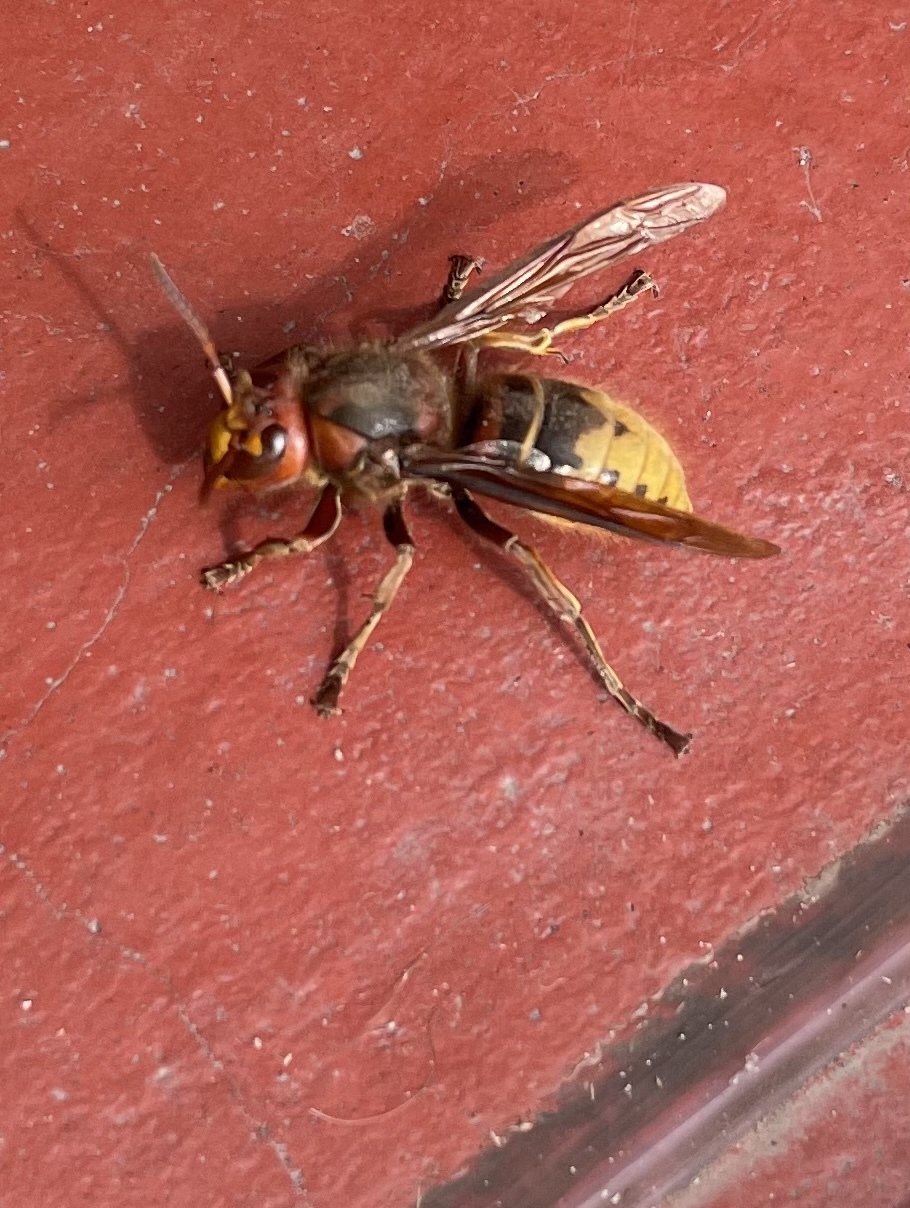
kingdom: Animalia
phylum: Arthropoda
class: Insecta
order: Hymenoptera
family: Vespidae
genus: Vespa
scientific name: Vespa crabro
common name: Hornet
